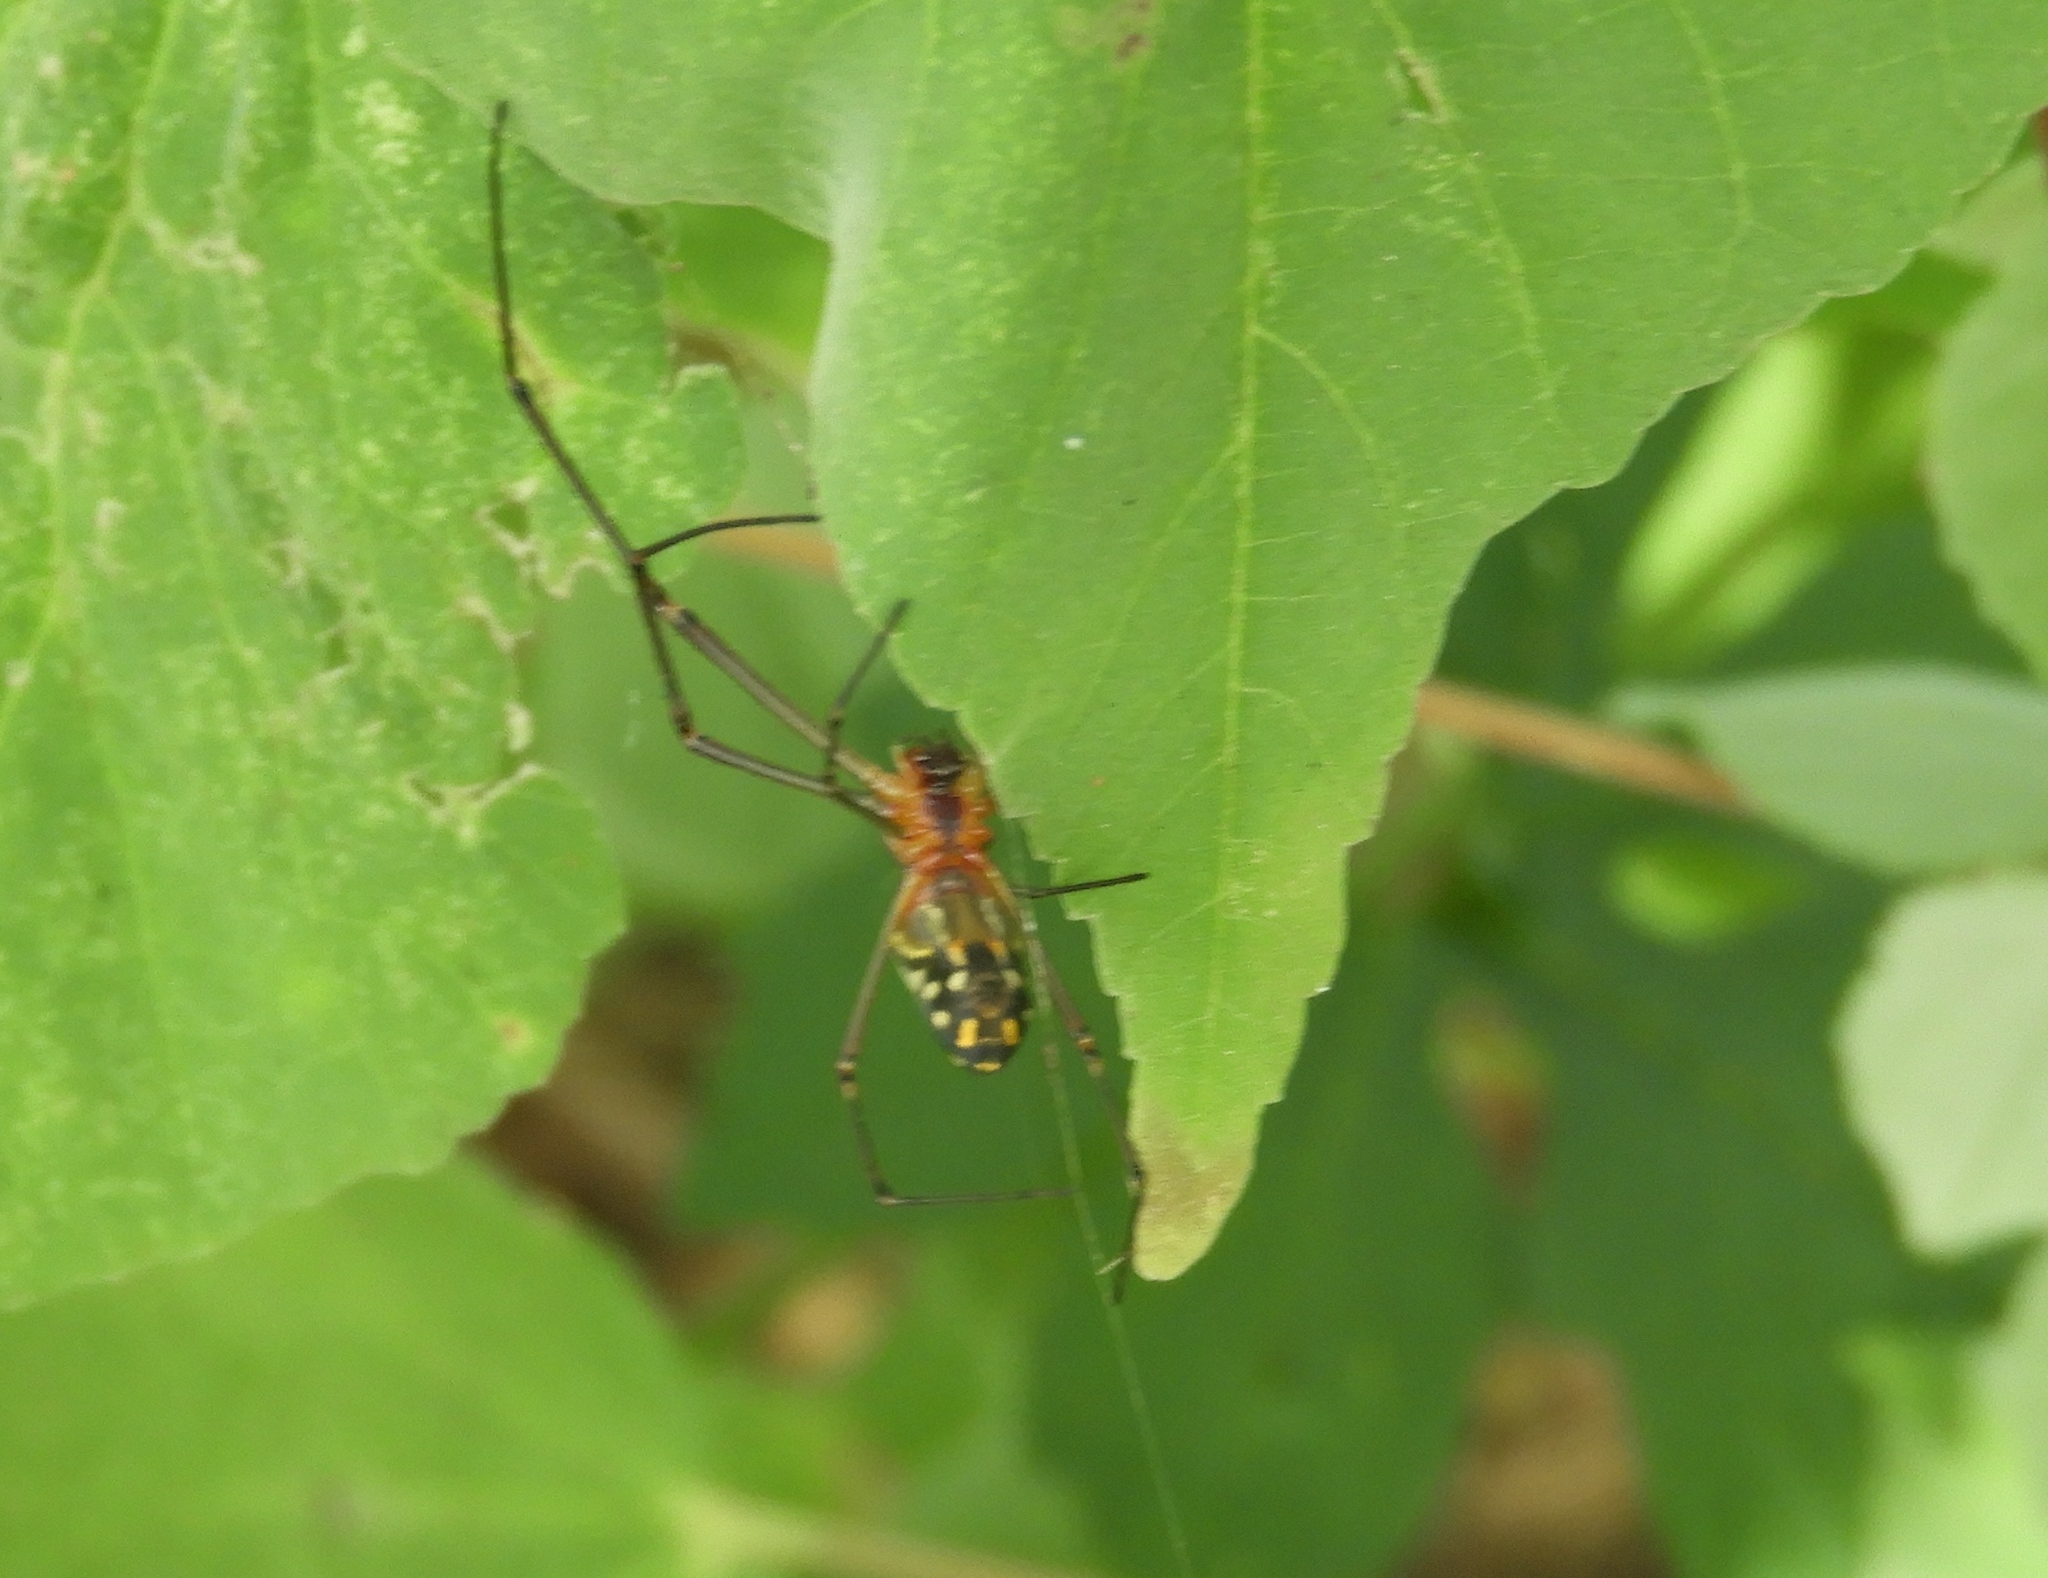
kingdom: Animalia
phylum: Arthropoda
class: Arachnida
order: Araneae
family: Tetragnathidae
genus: Leucauge
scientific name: Leucauge
